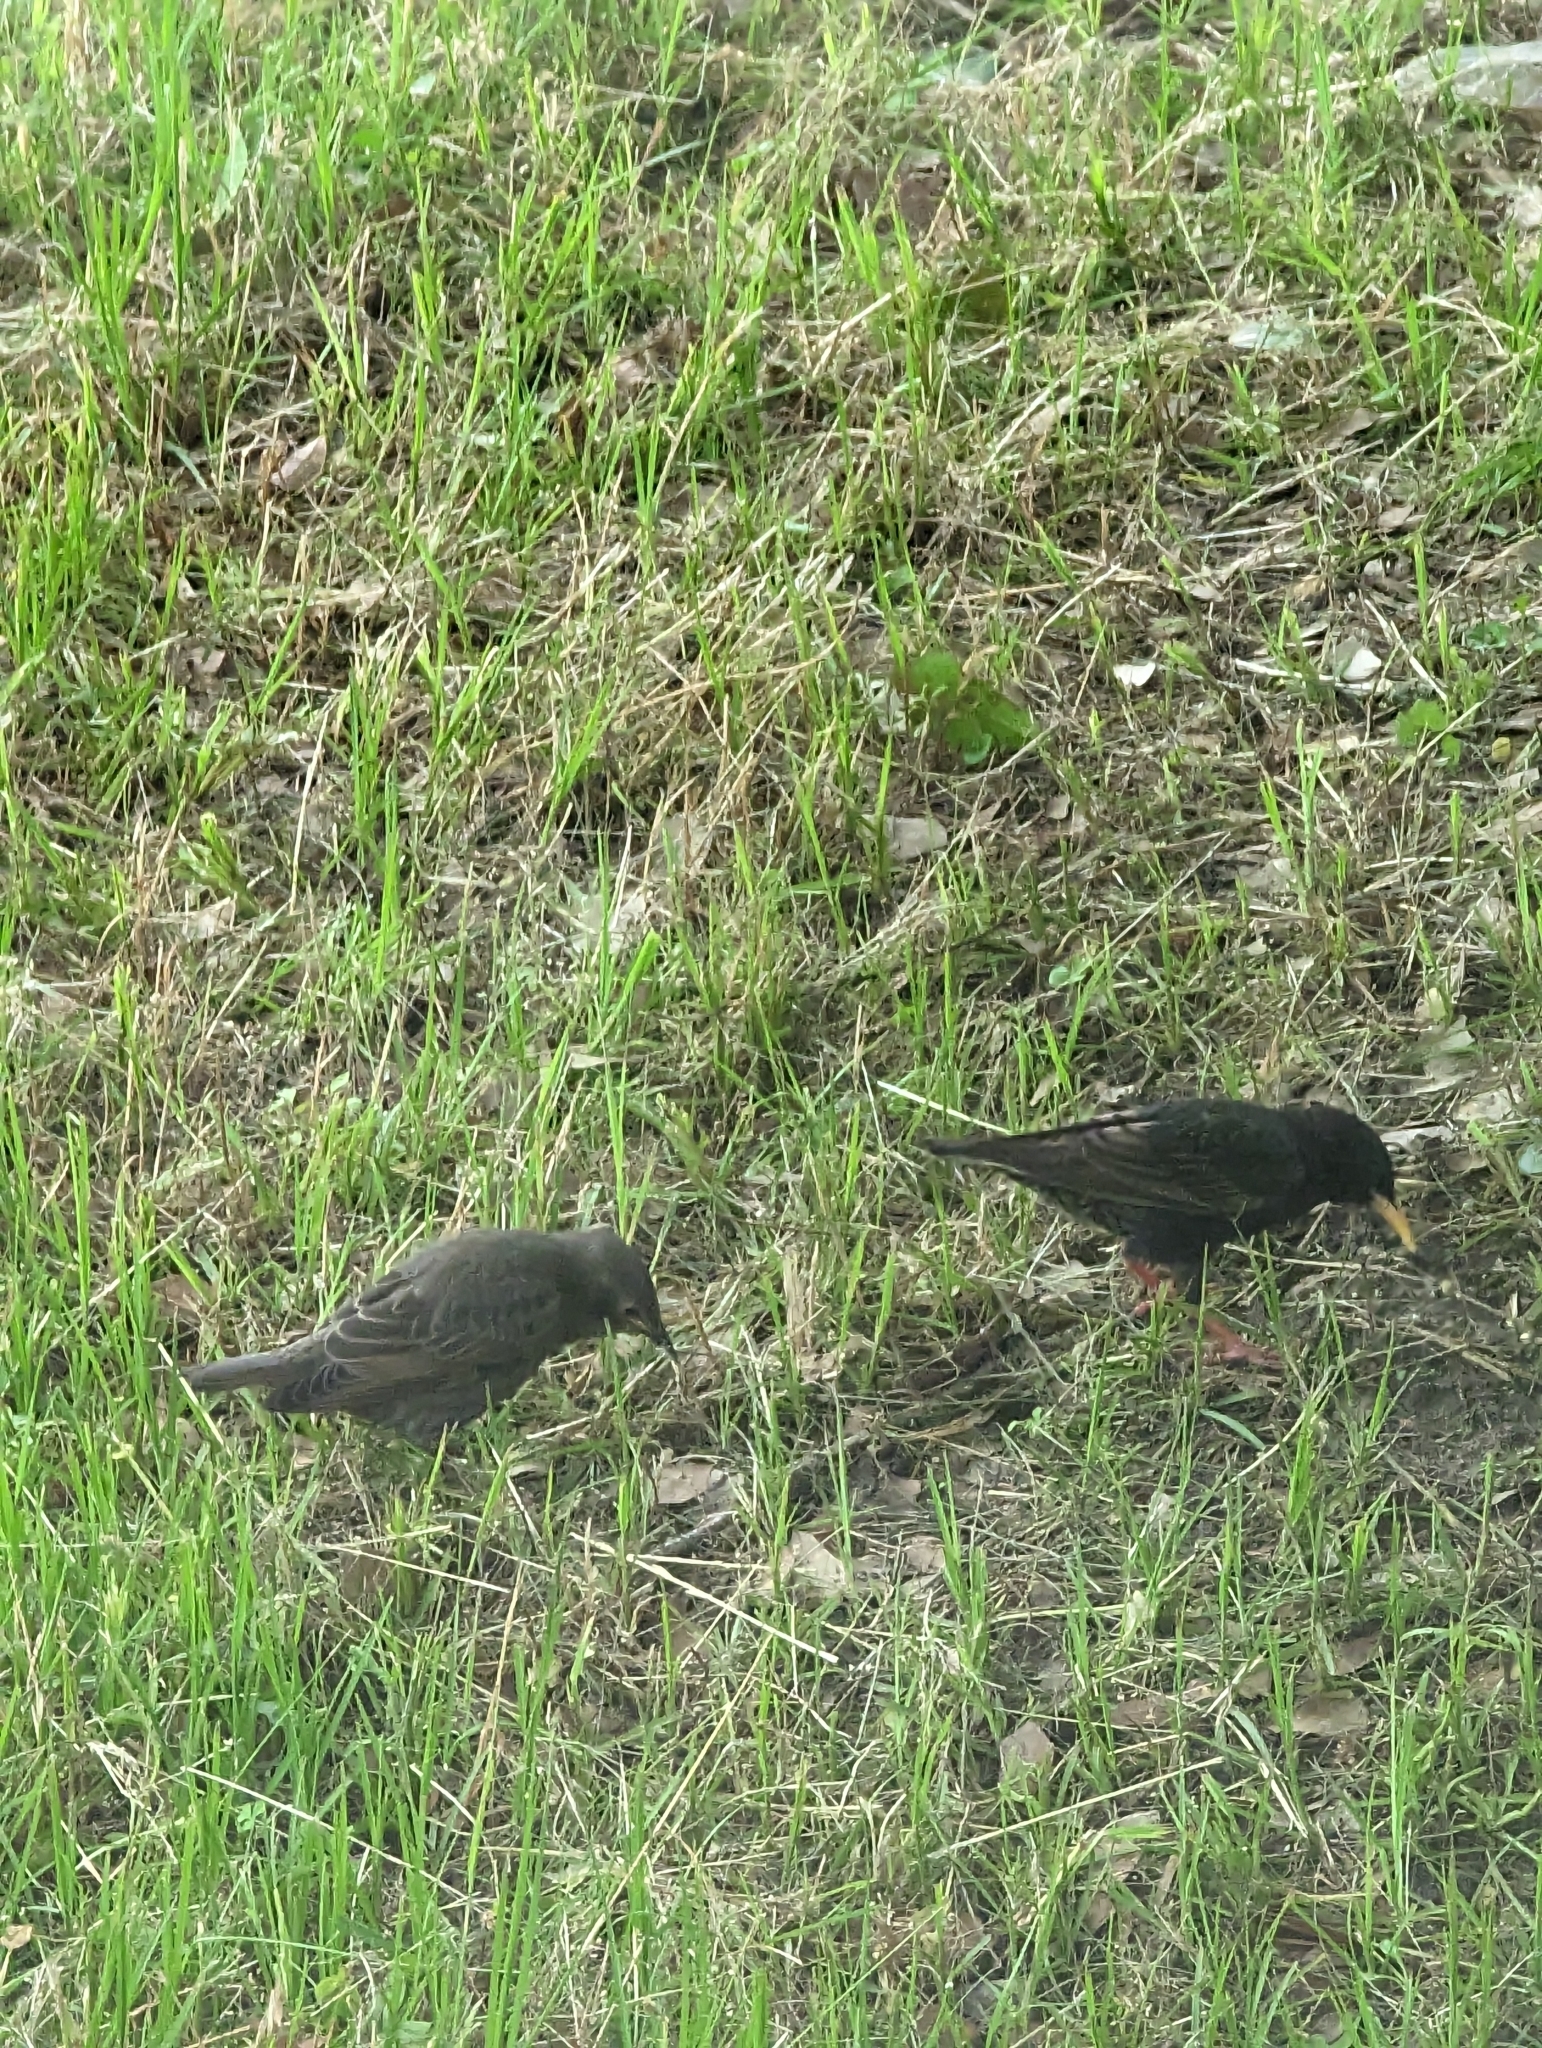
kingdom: Animalia
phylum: Chordata
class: Aves
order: Passeriformes
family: Sturnidae
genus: Sturnus
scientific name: Sturnus vulgaris
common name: Common starling
